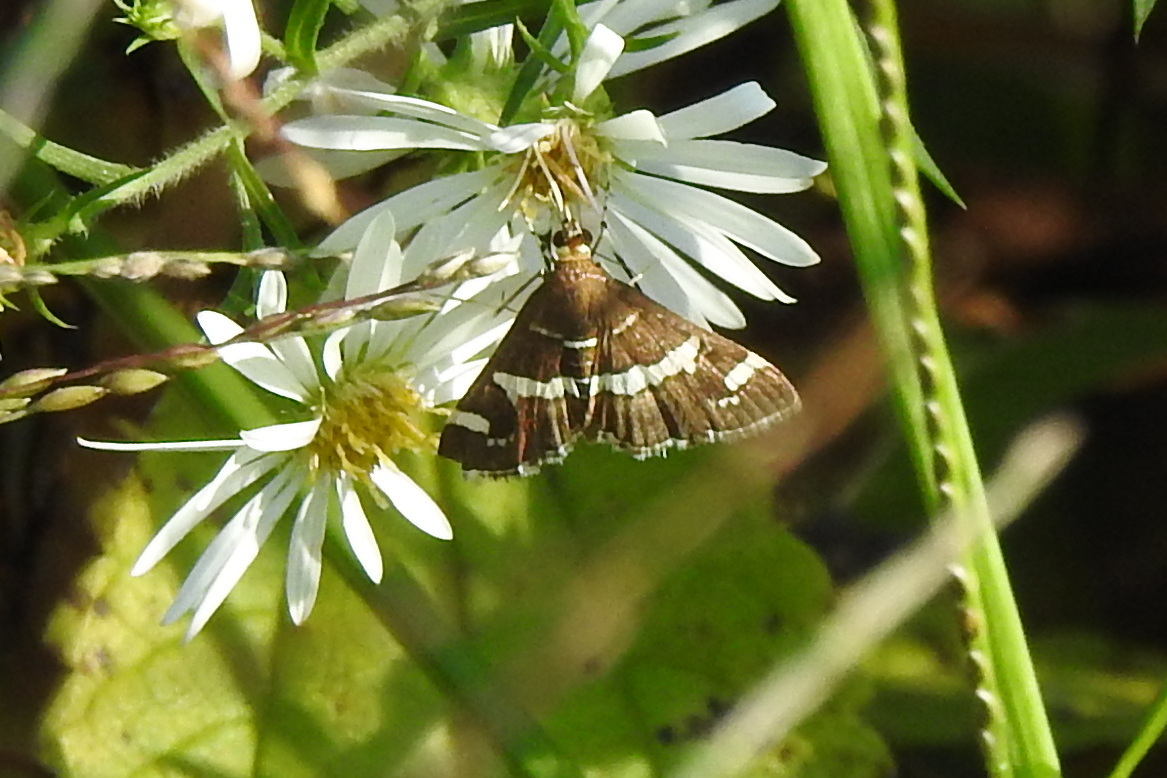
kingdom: Animalia
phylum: Arthropoda
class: Insecta
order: Lepidoptera
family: Crambidae
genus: Spoladea
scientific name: Spoladea recurvalis
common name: Beet webworm moth
